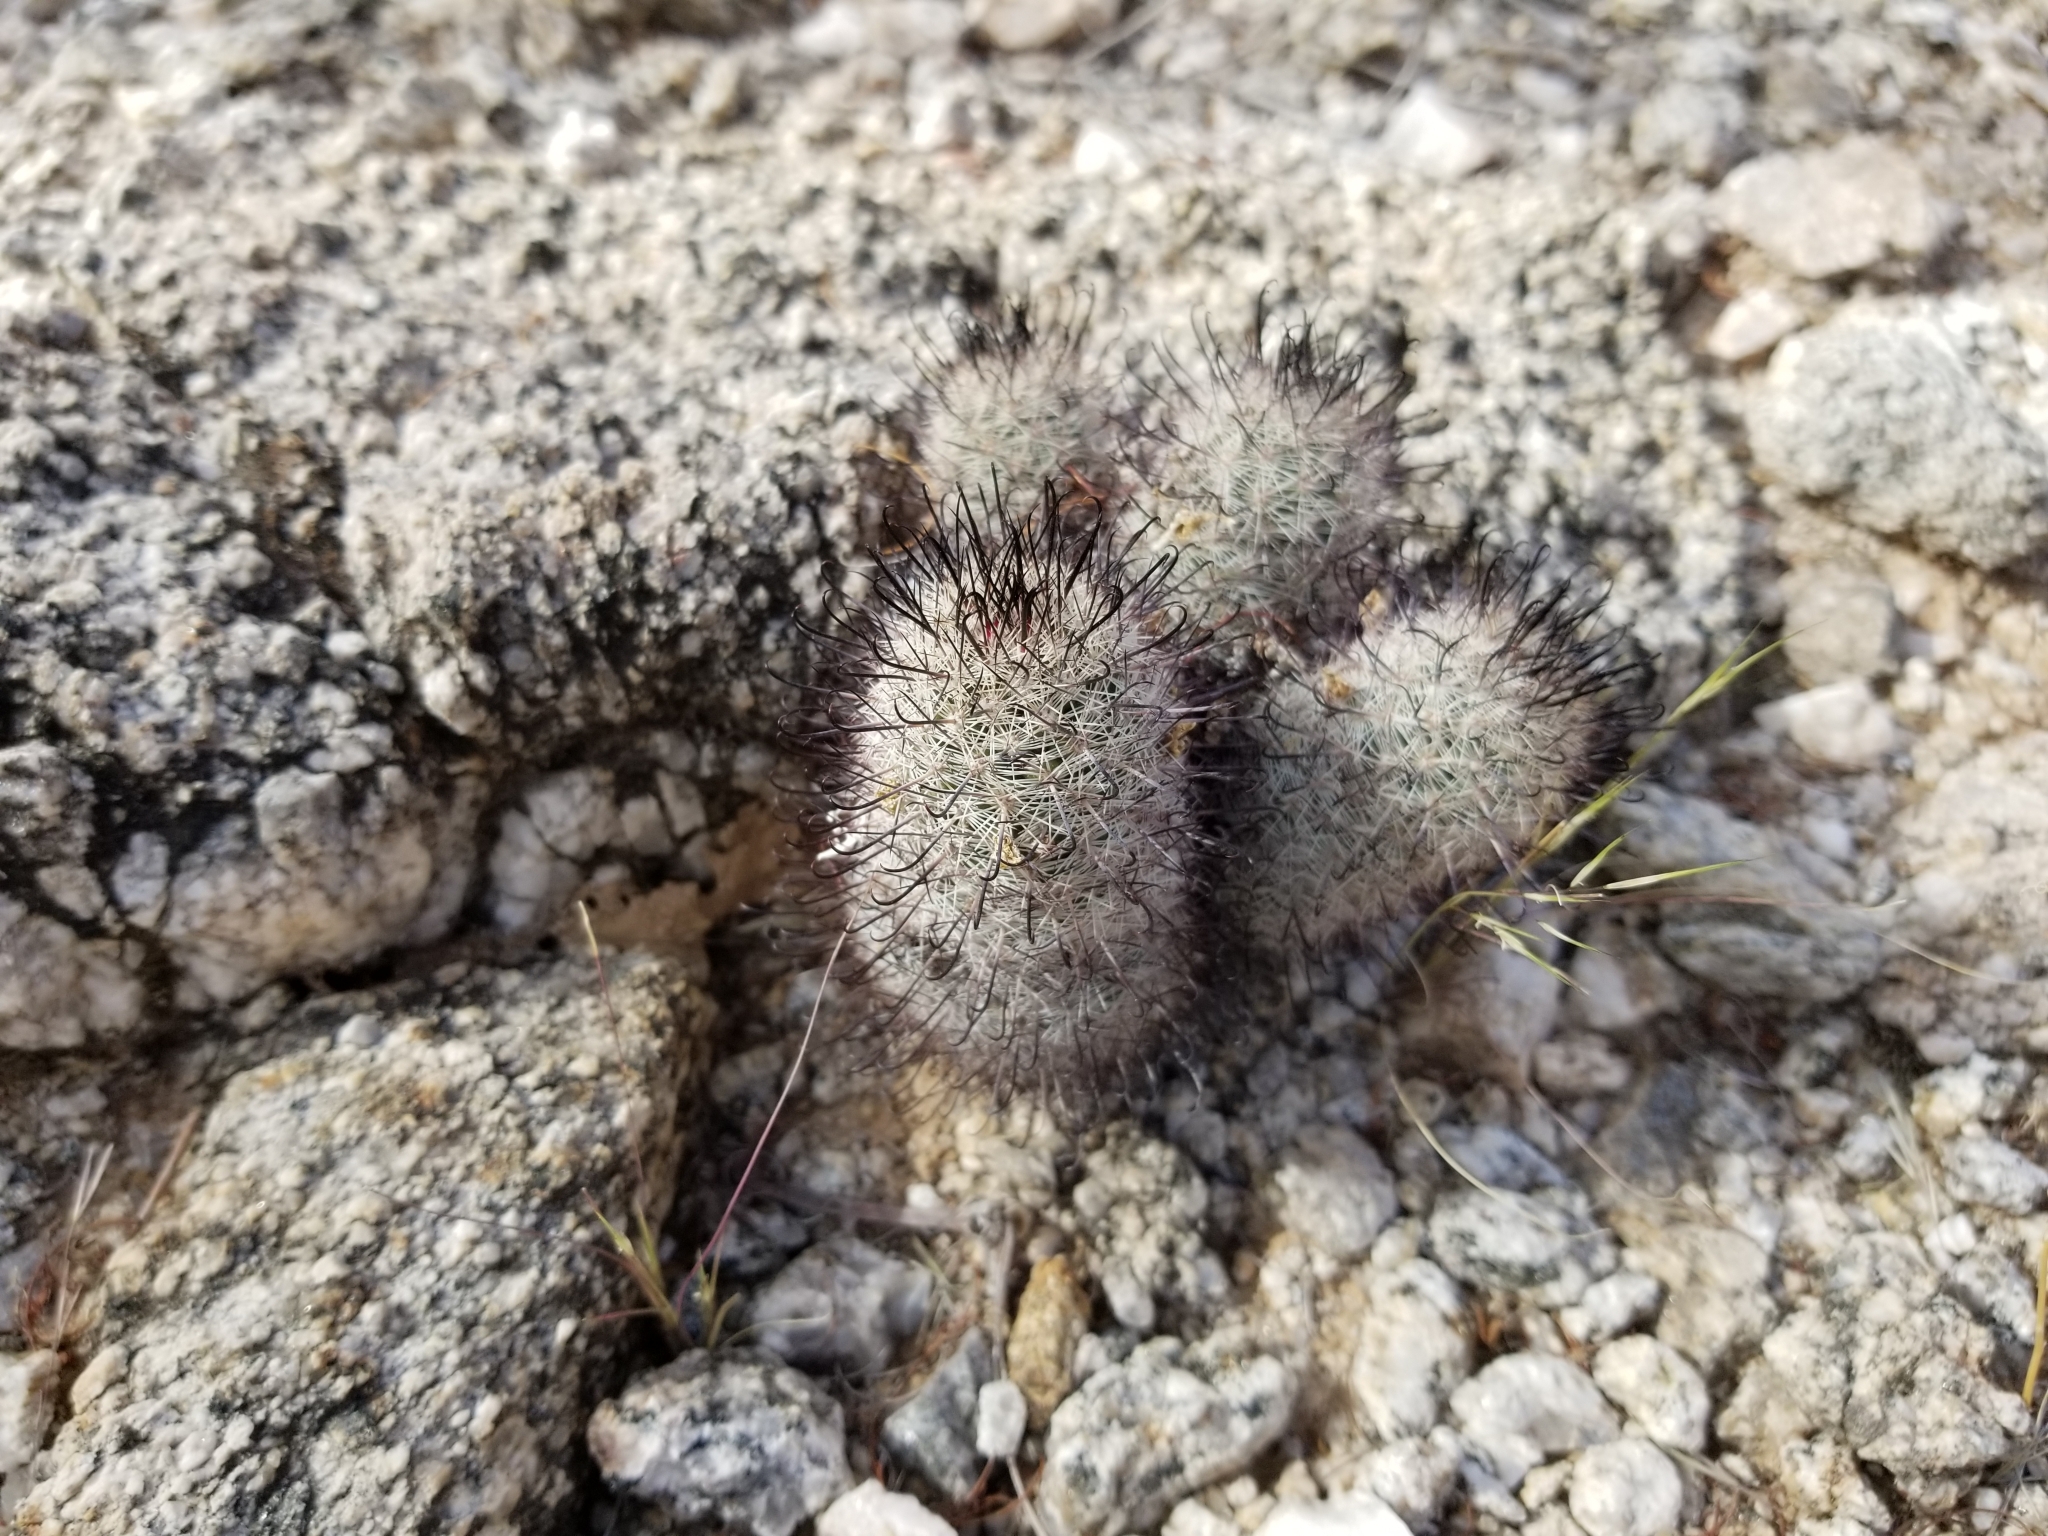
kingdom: Plantae
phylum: Tracheophyta
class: Magnoliopsida
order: Caryophyllales
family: Cactaceae
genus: Cochemiea
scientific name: Cochemiea grahamii
